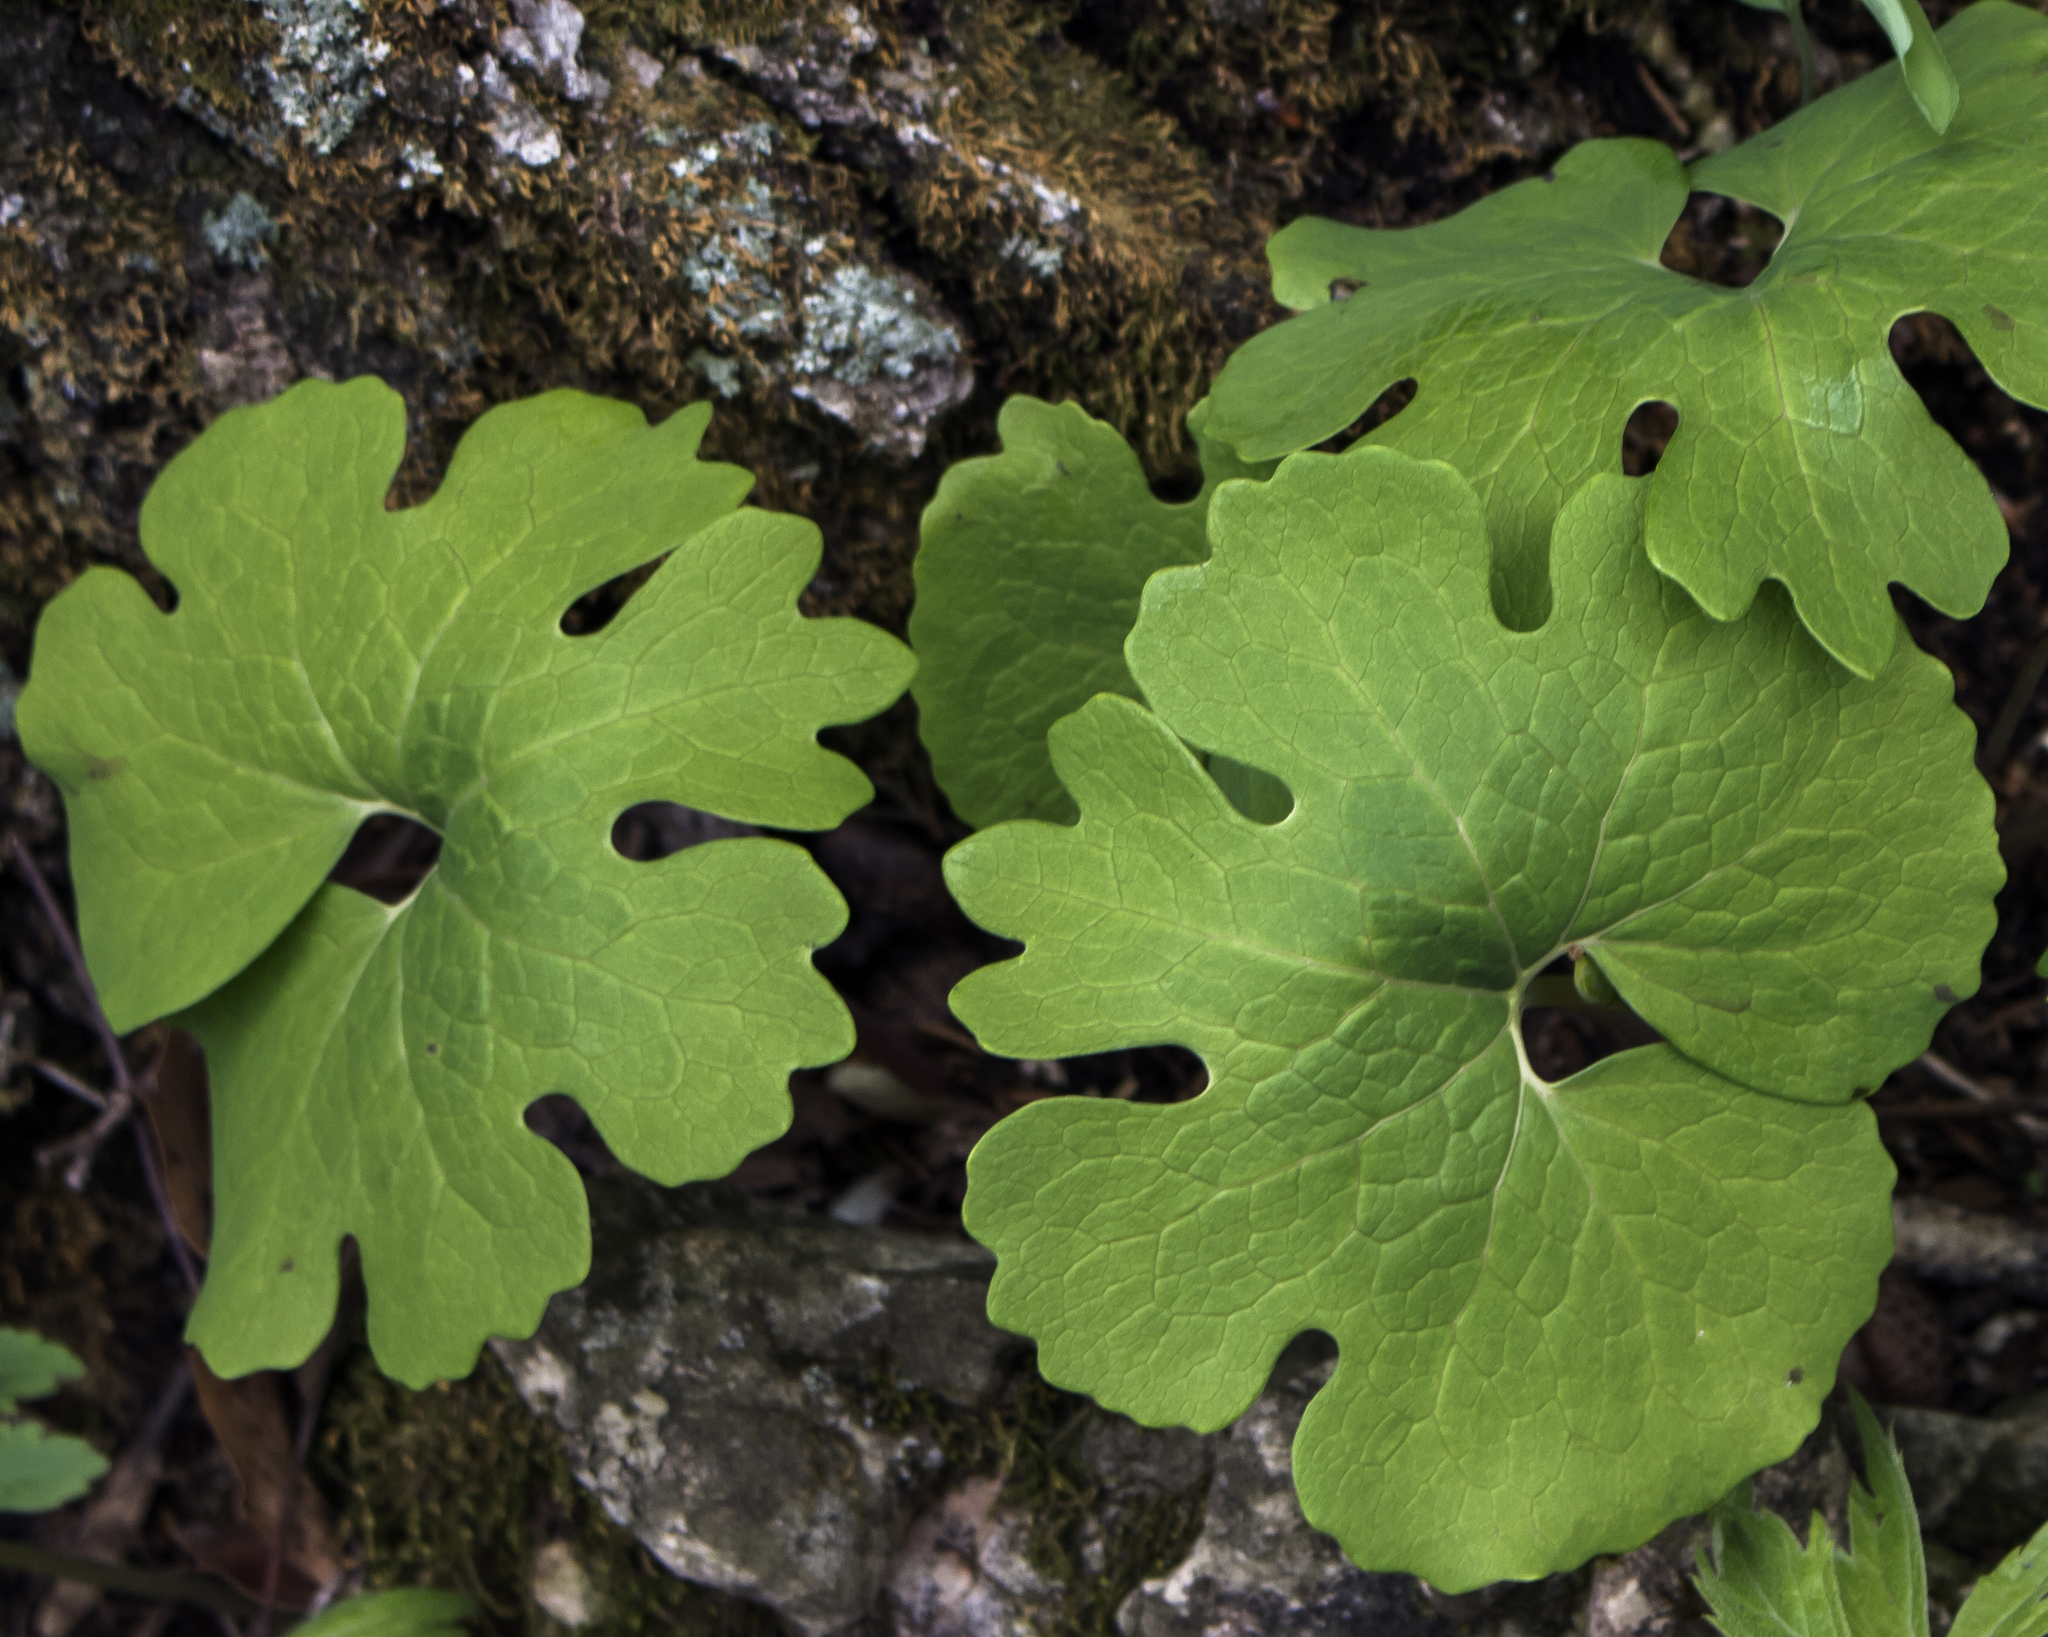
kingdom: Plantae
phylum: Tracheophyta
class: Magnoliopsida
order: Ranunculales
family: Papaveraceae
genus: Sanguinaria
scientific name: Sanguinaria canadensis
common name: Bloodroot
